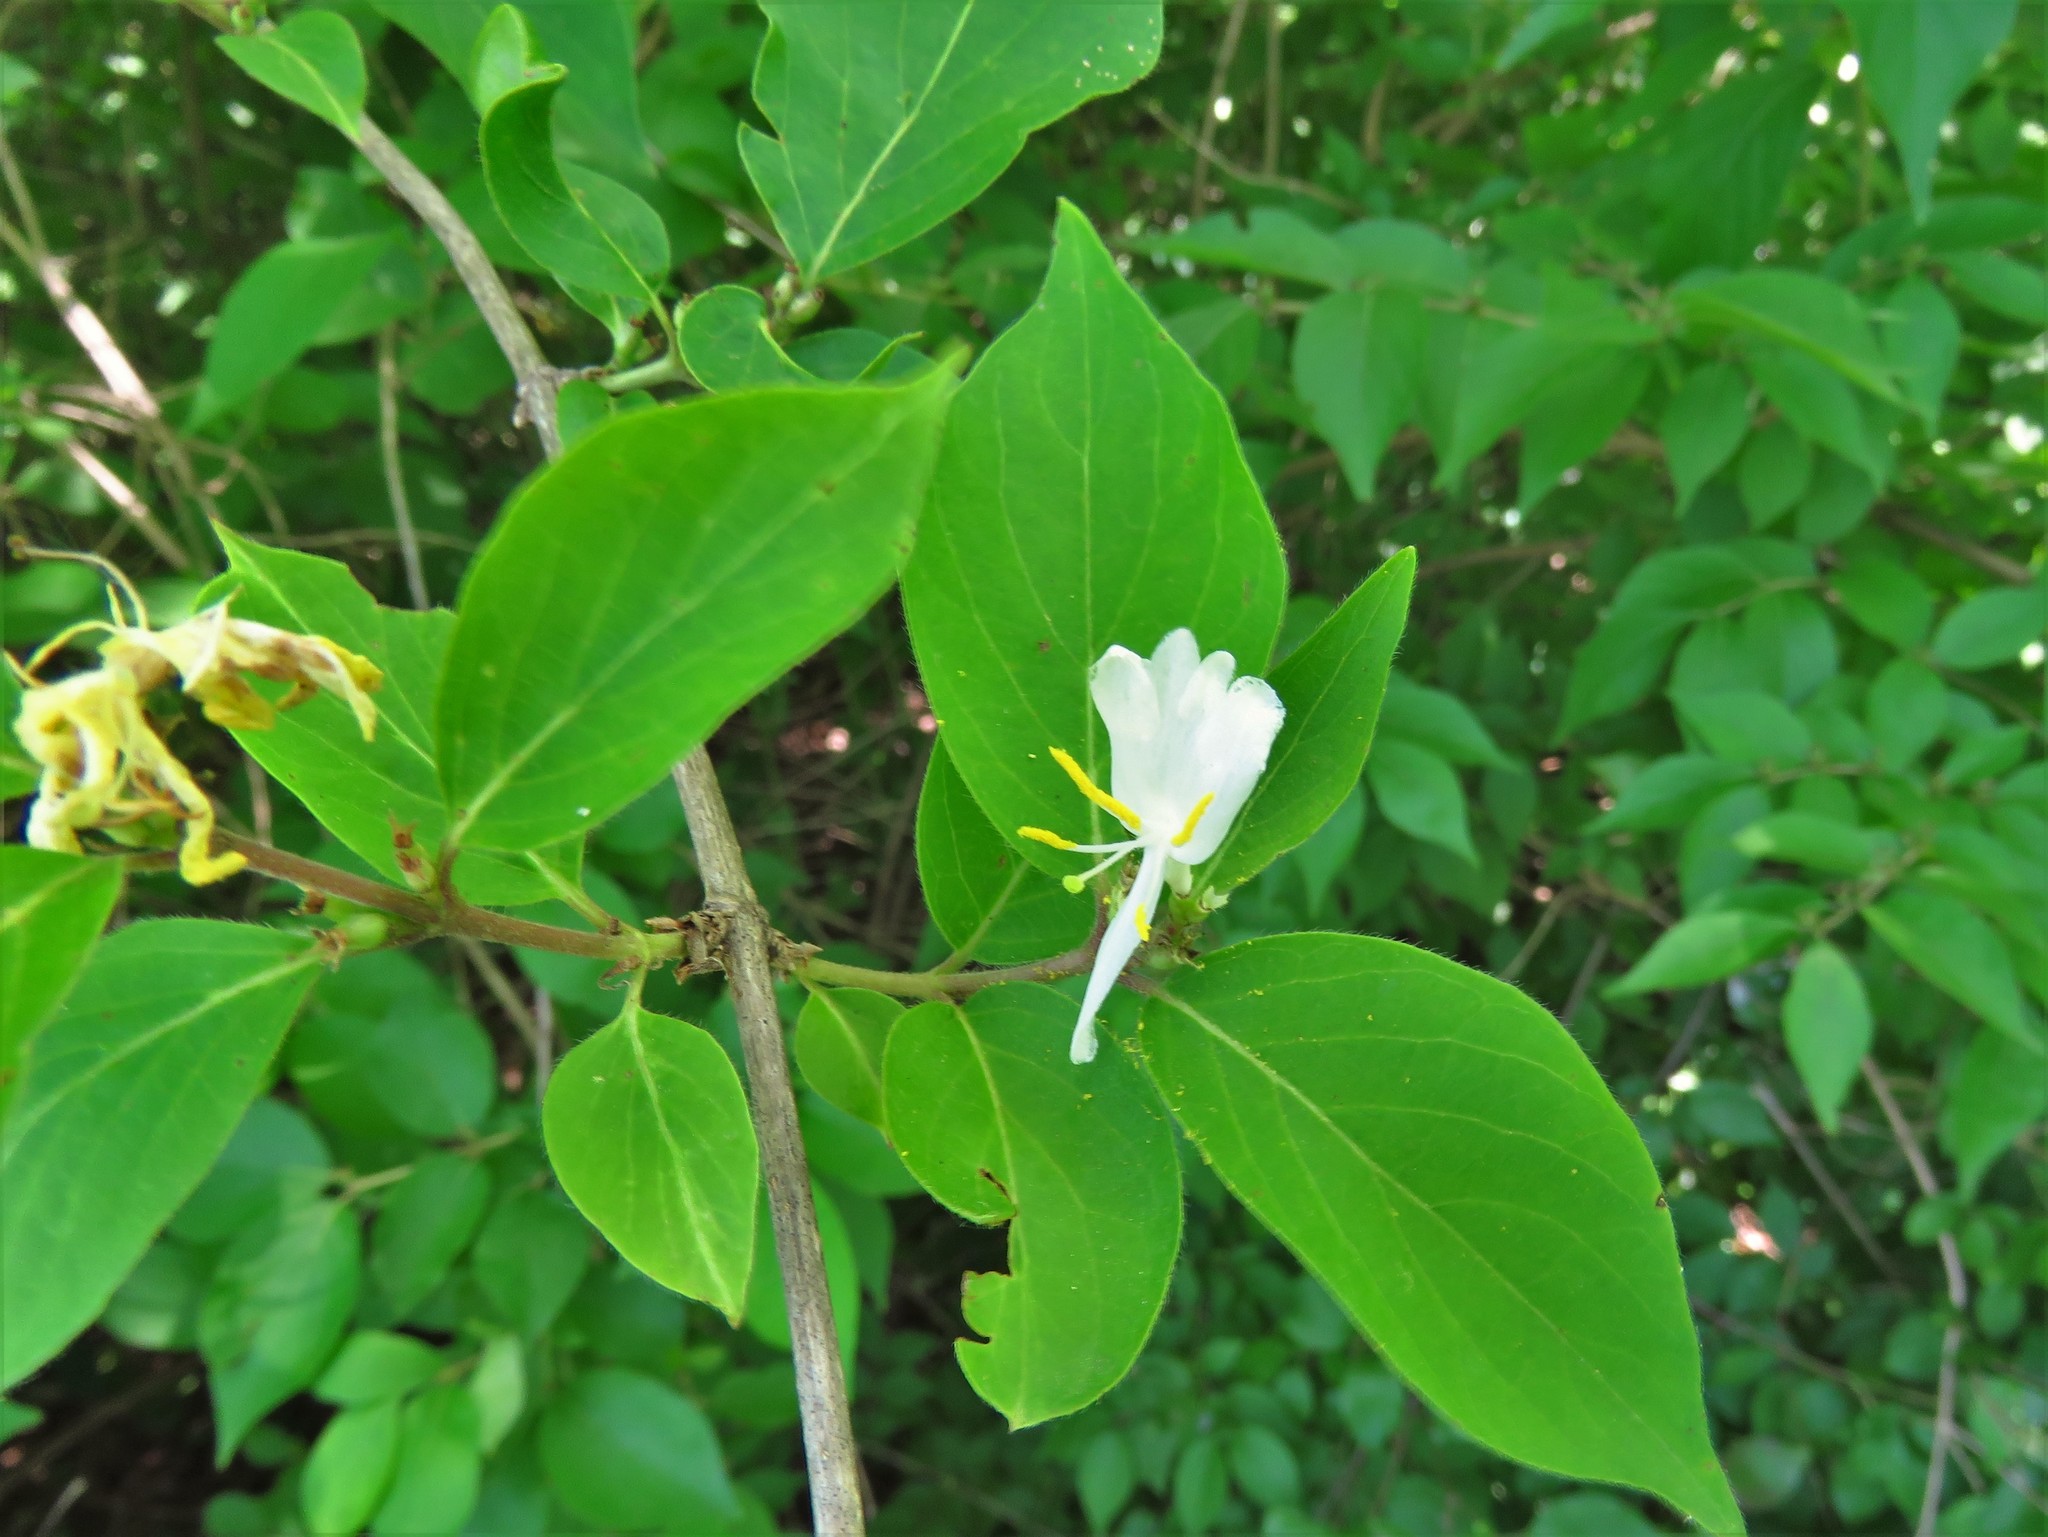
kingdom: Plantae
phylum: Tracheophyta
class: Magnoliopsida
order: Dipsacales
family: Caprifoliaceae
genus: Lonicera
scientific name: Lonicera japonica
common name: Japanese honeysuckle
